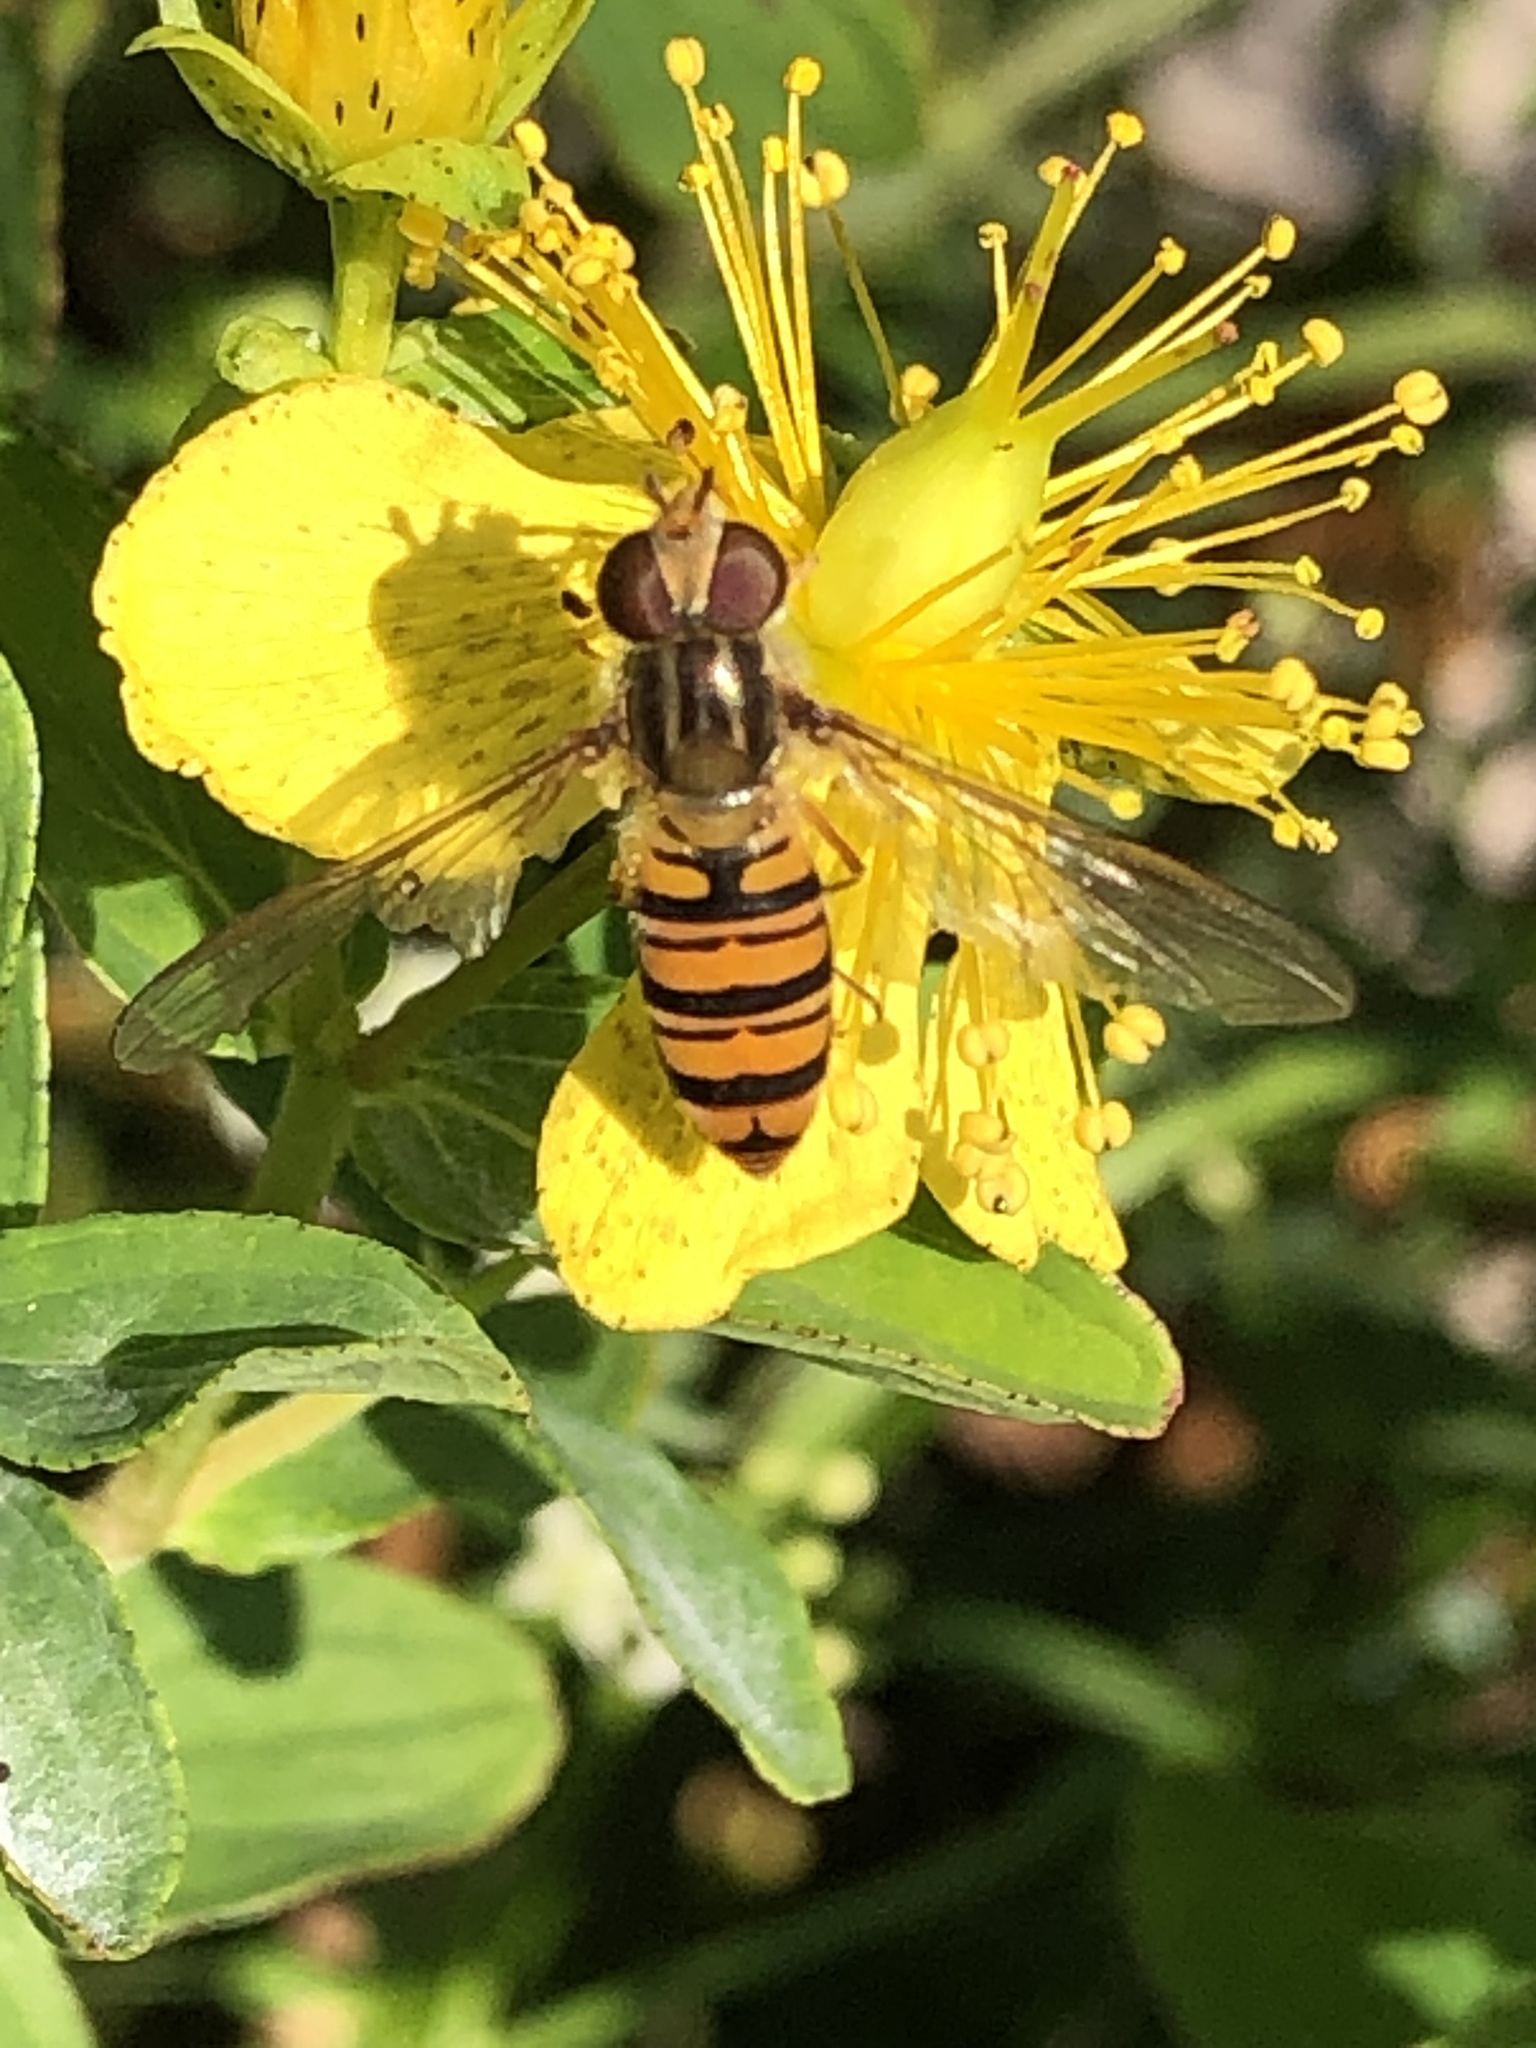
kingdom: Animalia
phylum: Arthropoda
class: Insecta
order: Diptera
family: Syrphidae
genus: Episyrphus
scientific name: Episyrphus balteatus
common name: Marmalade hoverfly
